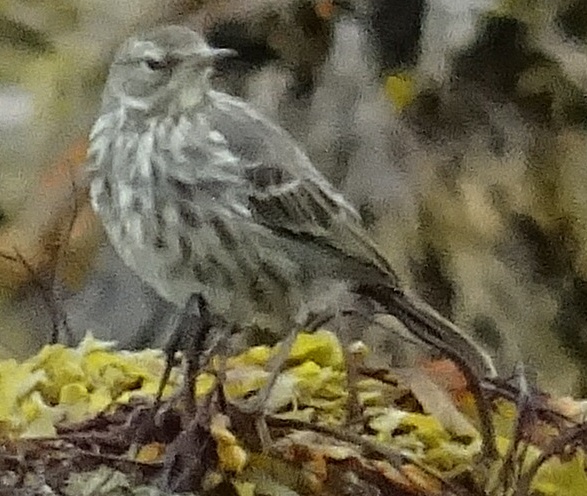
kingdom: Animalia
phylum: Chordata
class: Aves
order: Passeriformes
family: Motacillidae
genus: Anthus
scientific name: Anthus petrosus
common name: Eurasian rock pipit
